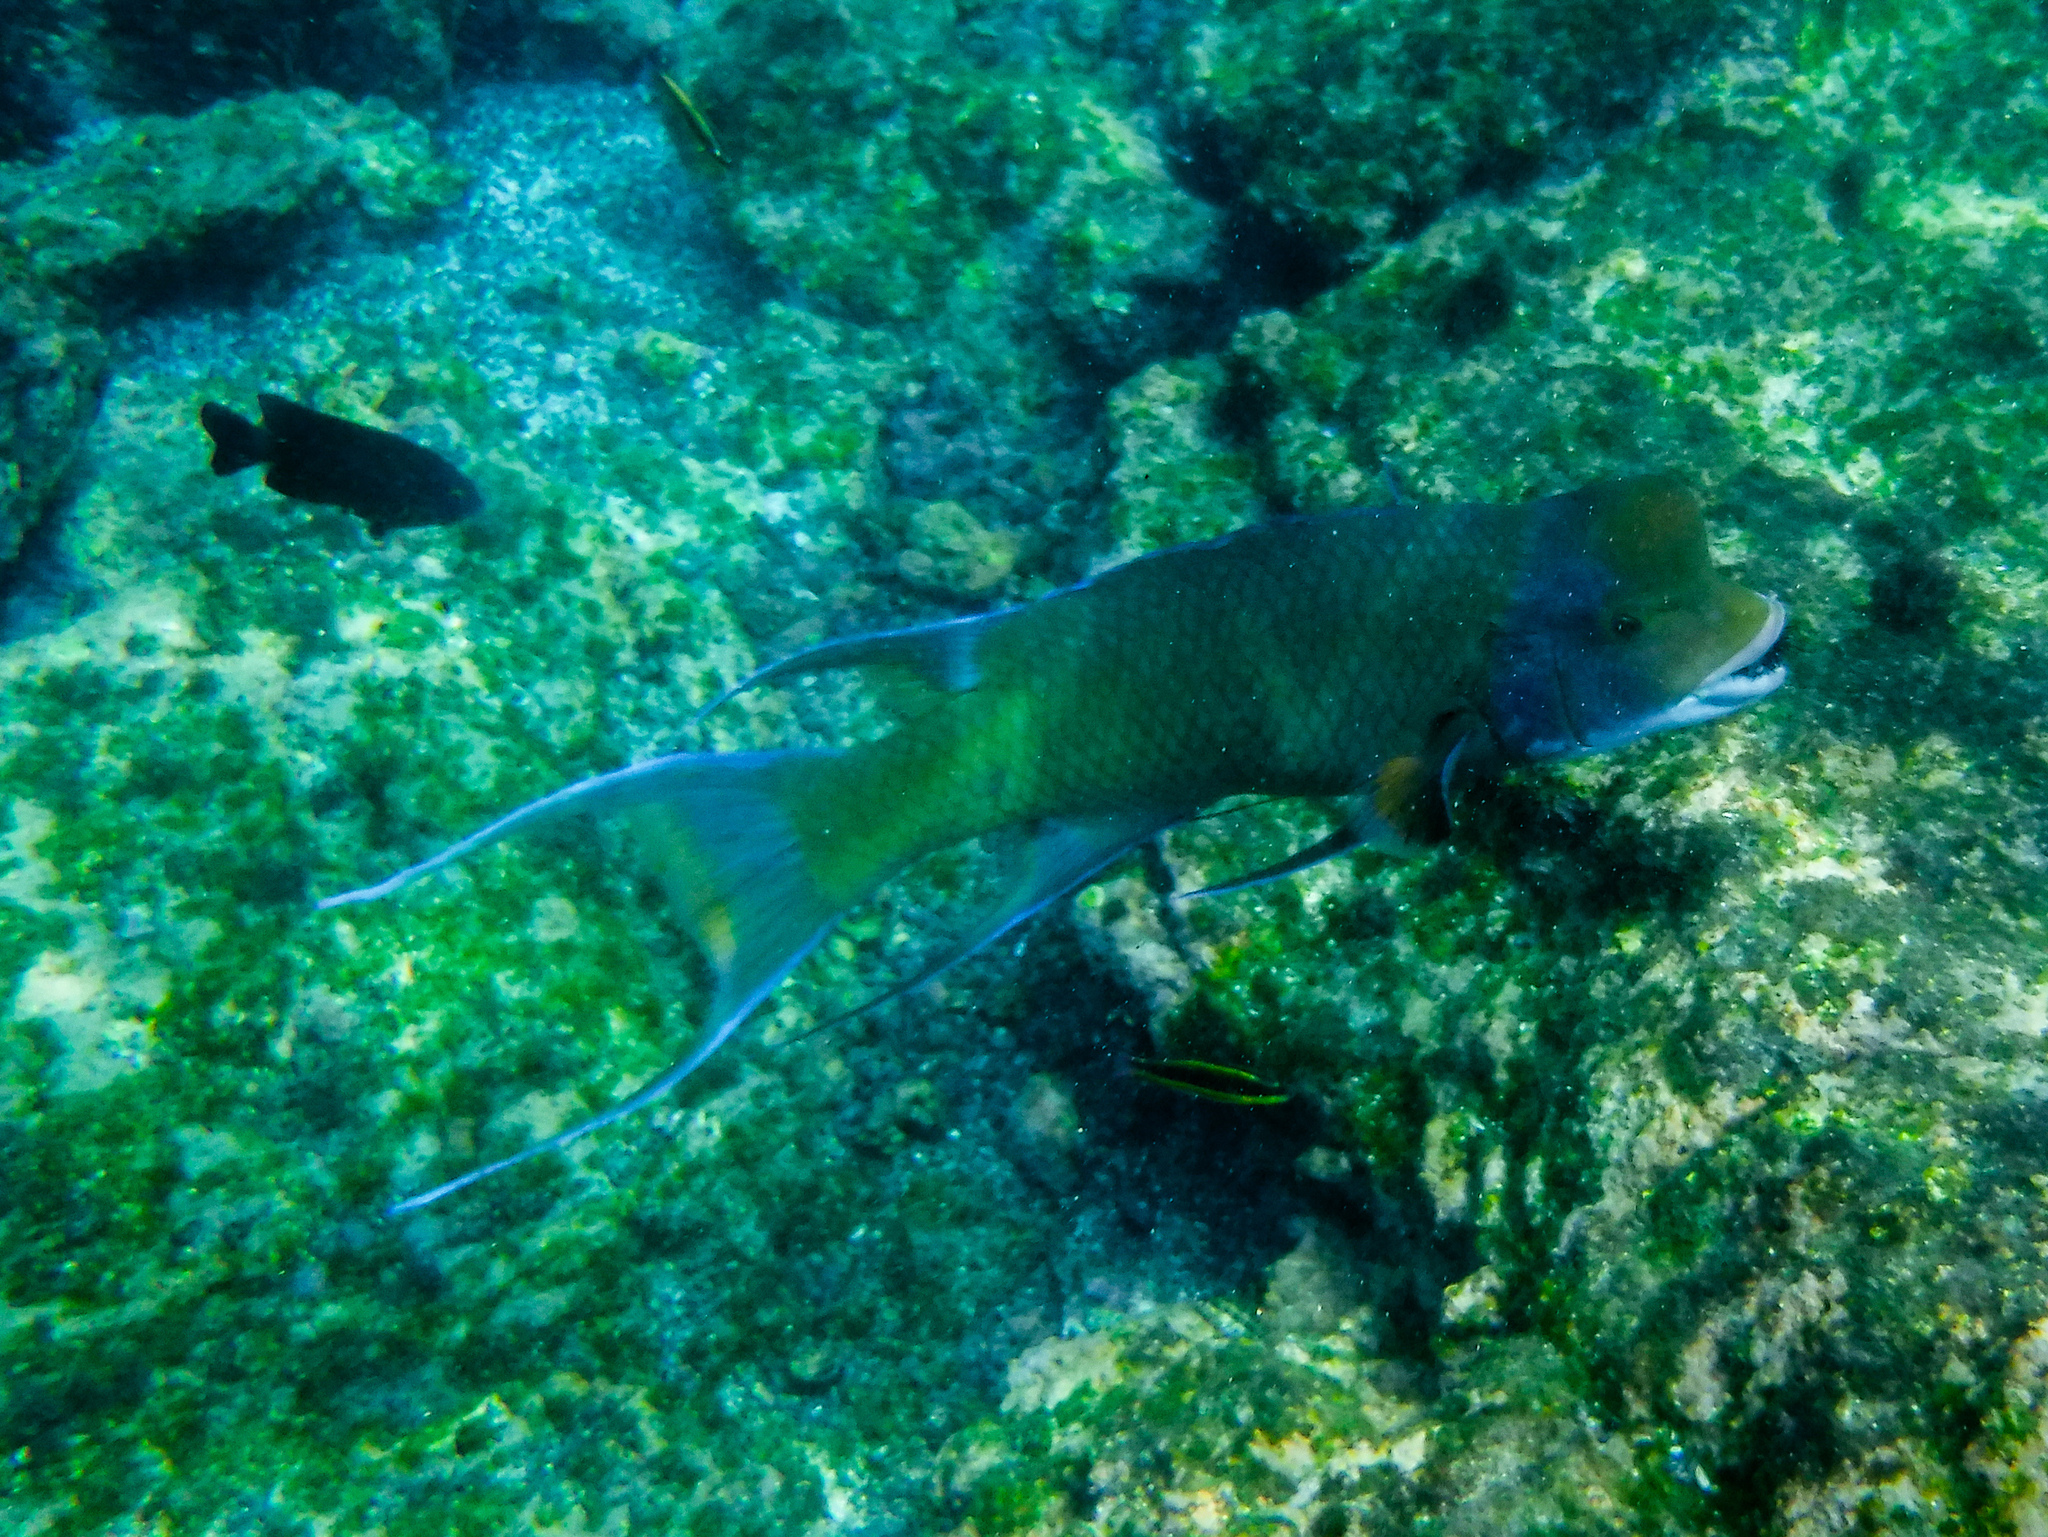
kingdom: Animalia
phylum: Chordata
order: Perciformes
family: Labridae
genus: Bodianus
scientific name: Bodianus diplotaenia
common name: Mexican hogfish
